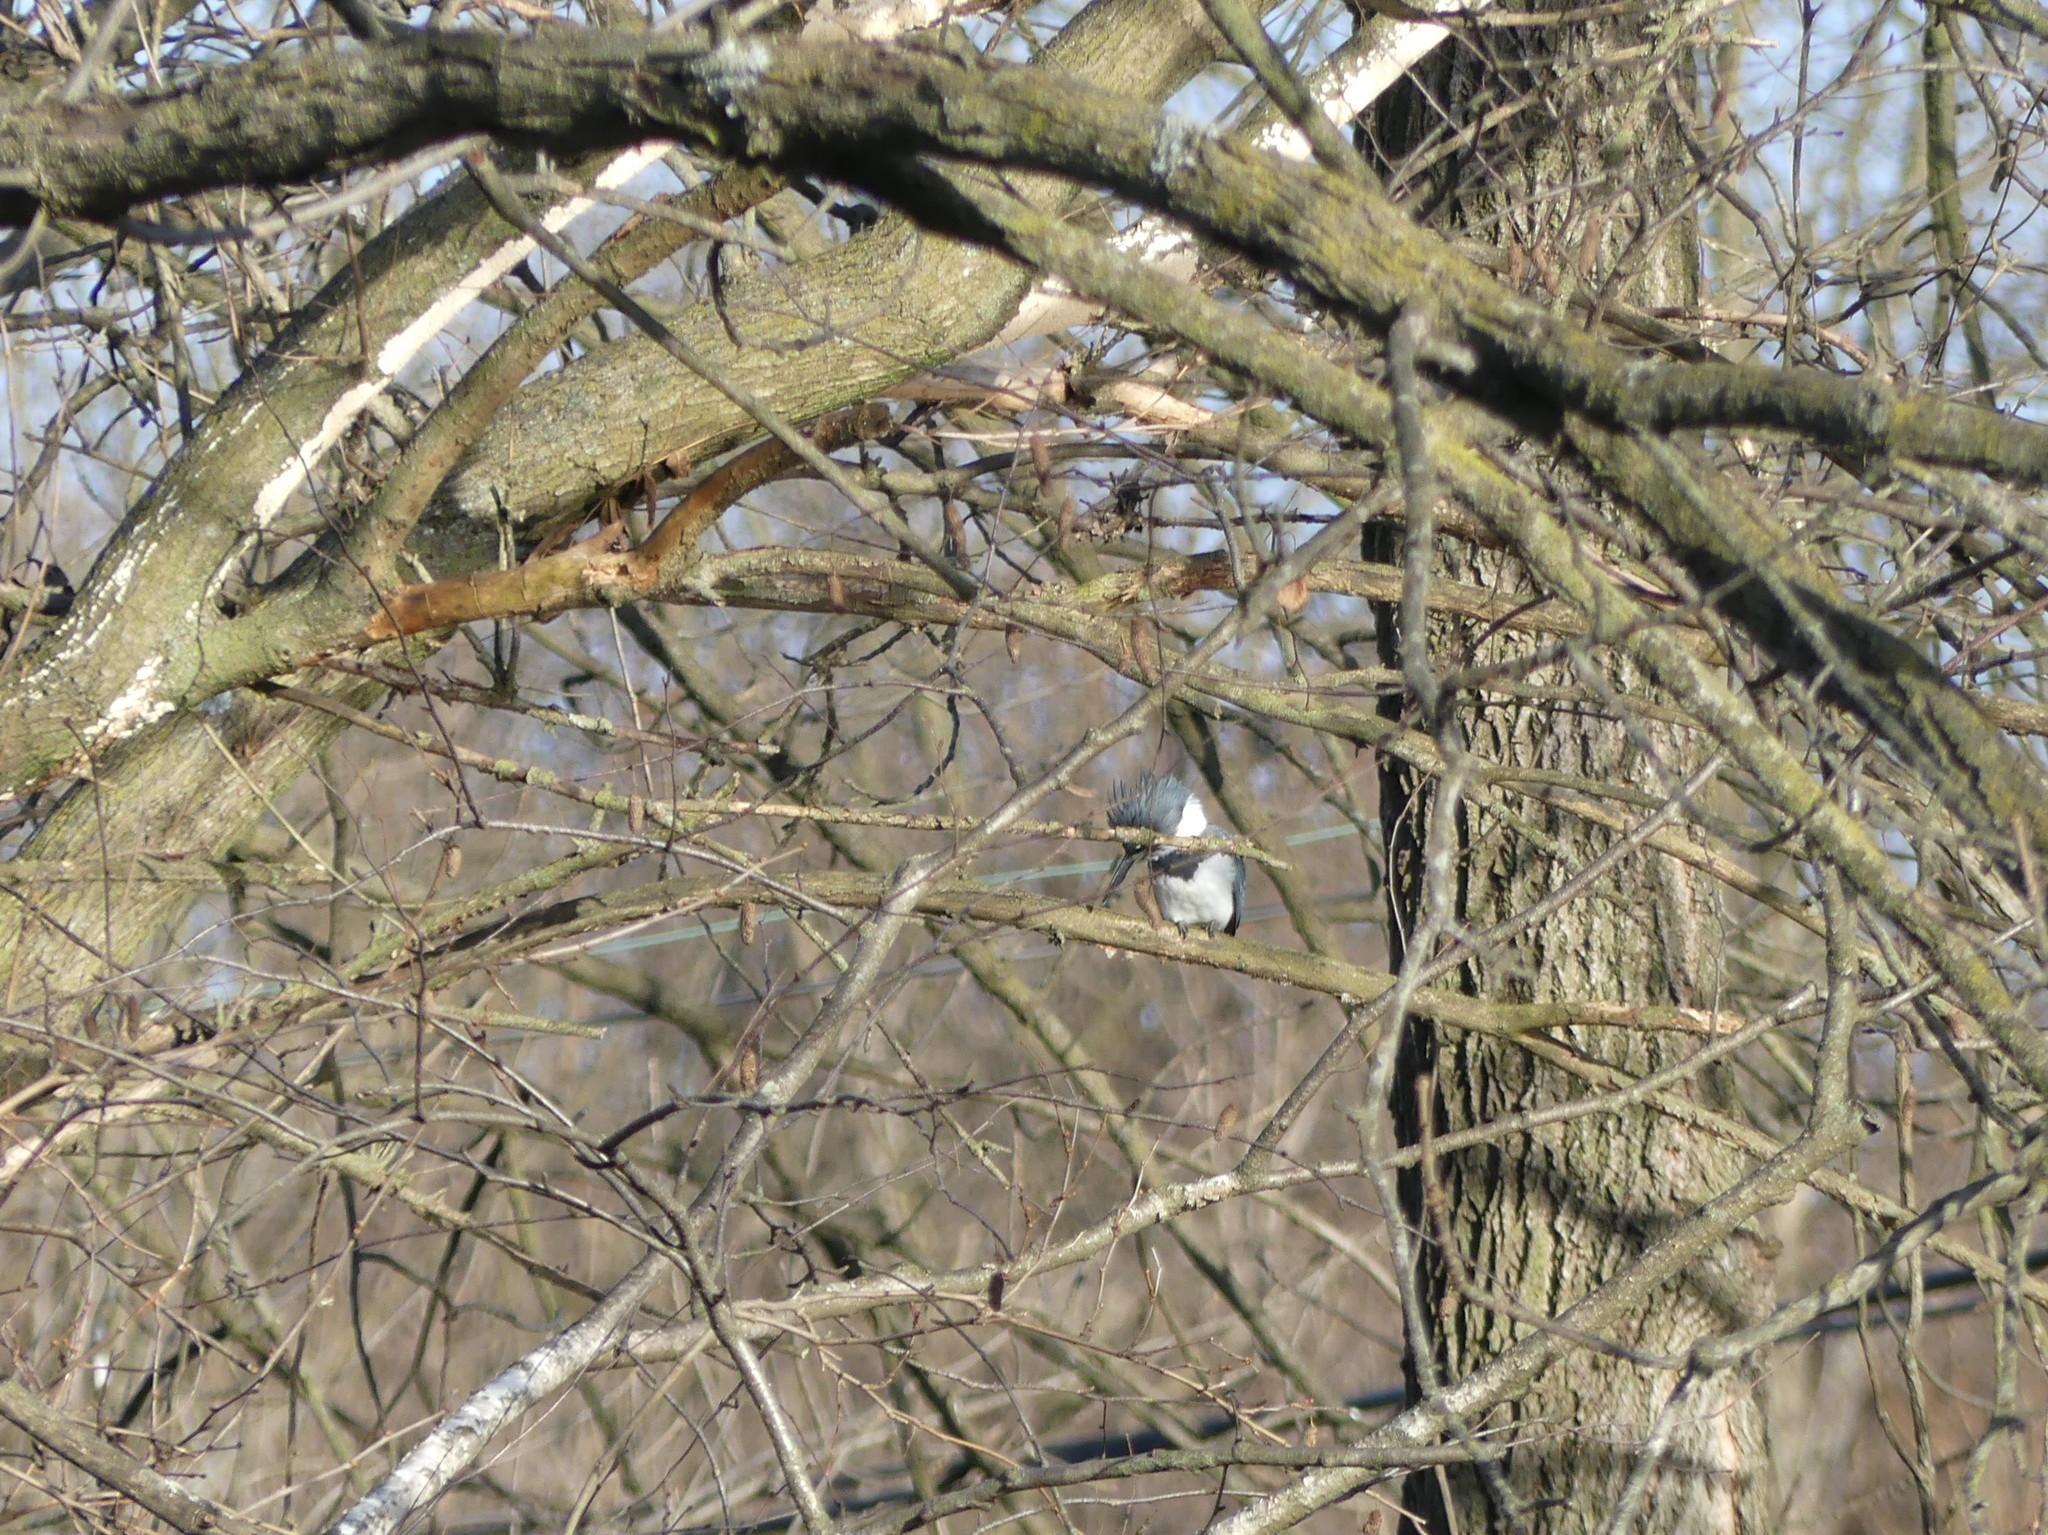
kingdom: Animalia
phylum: Chordata
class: Aves
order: Coraciiformes
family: Alcedinidae
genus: Megaceryle
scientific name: Megaceryle alcyon
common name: Belted kingfisher
